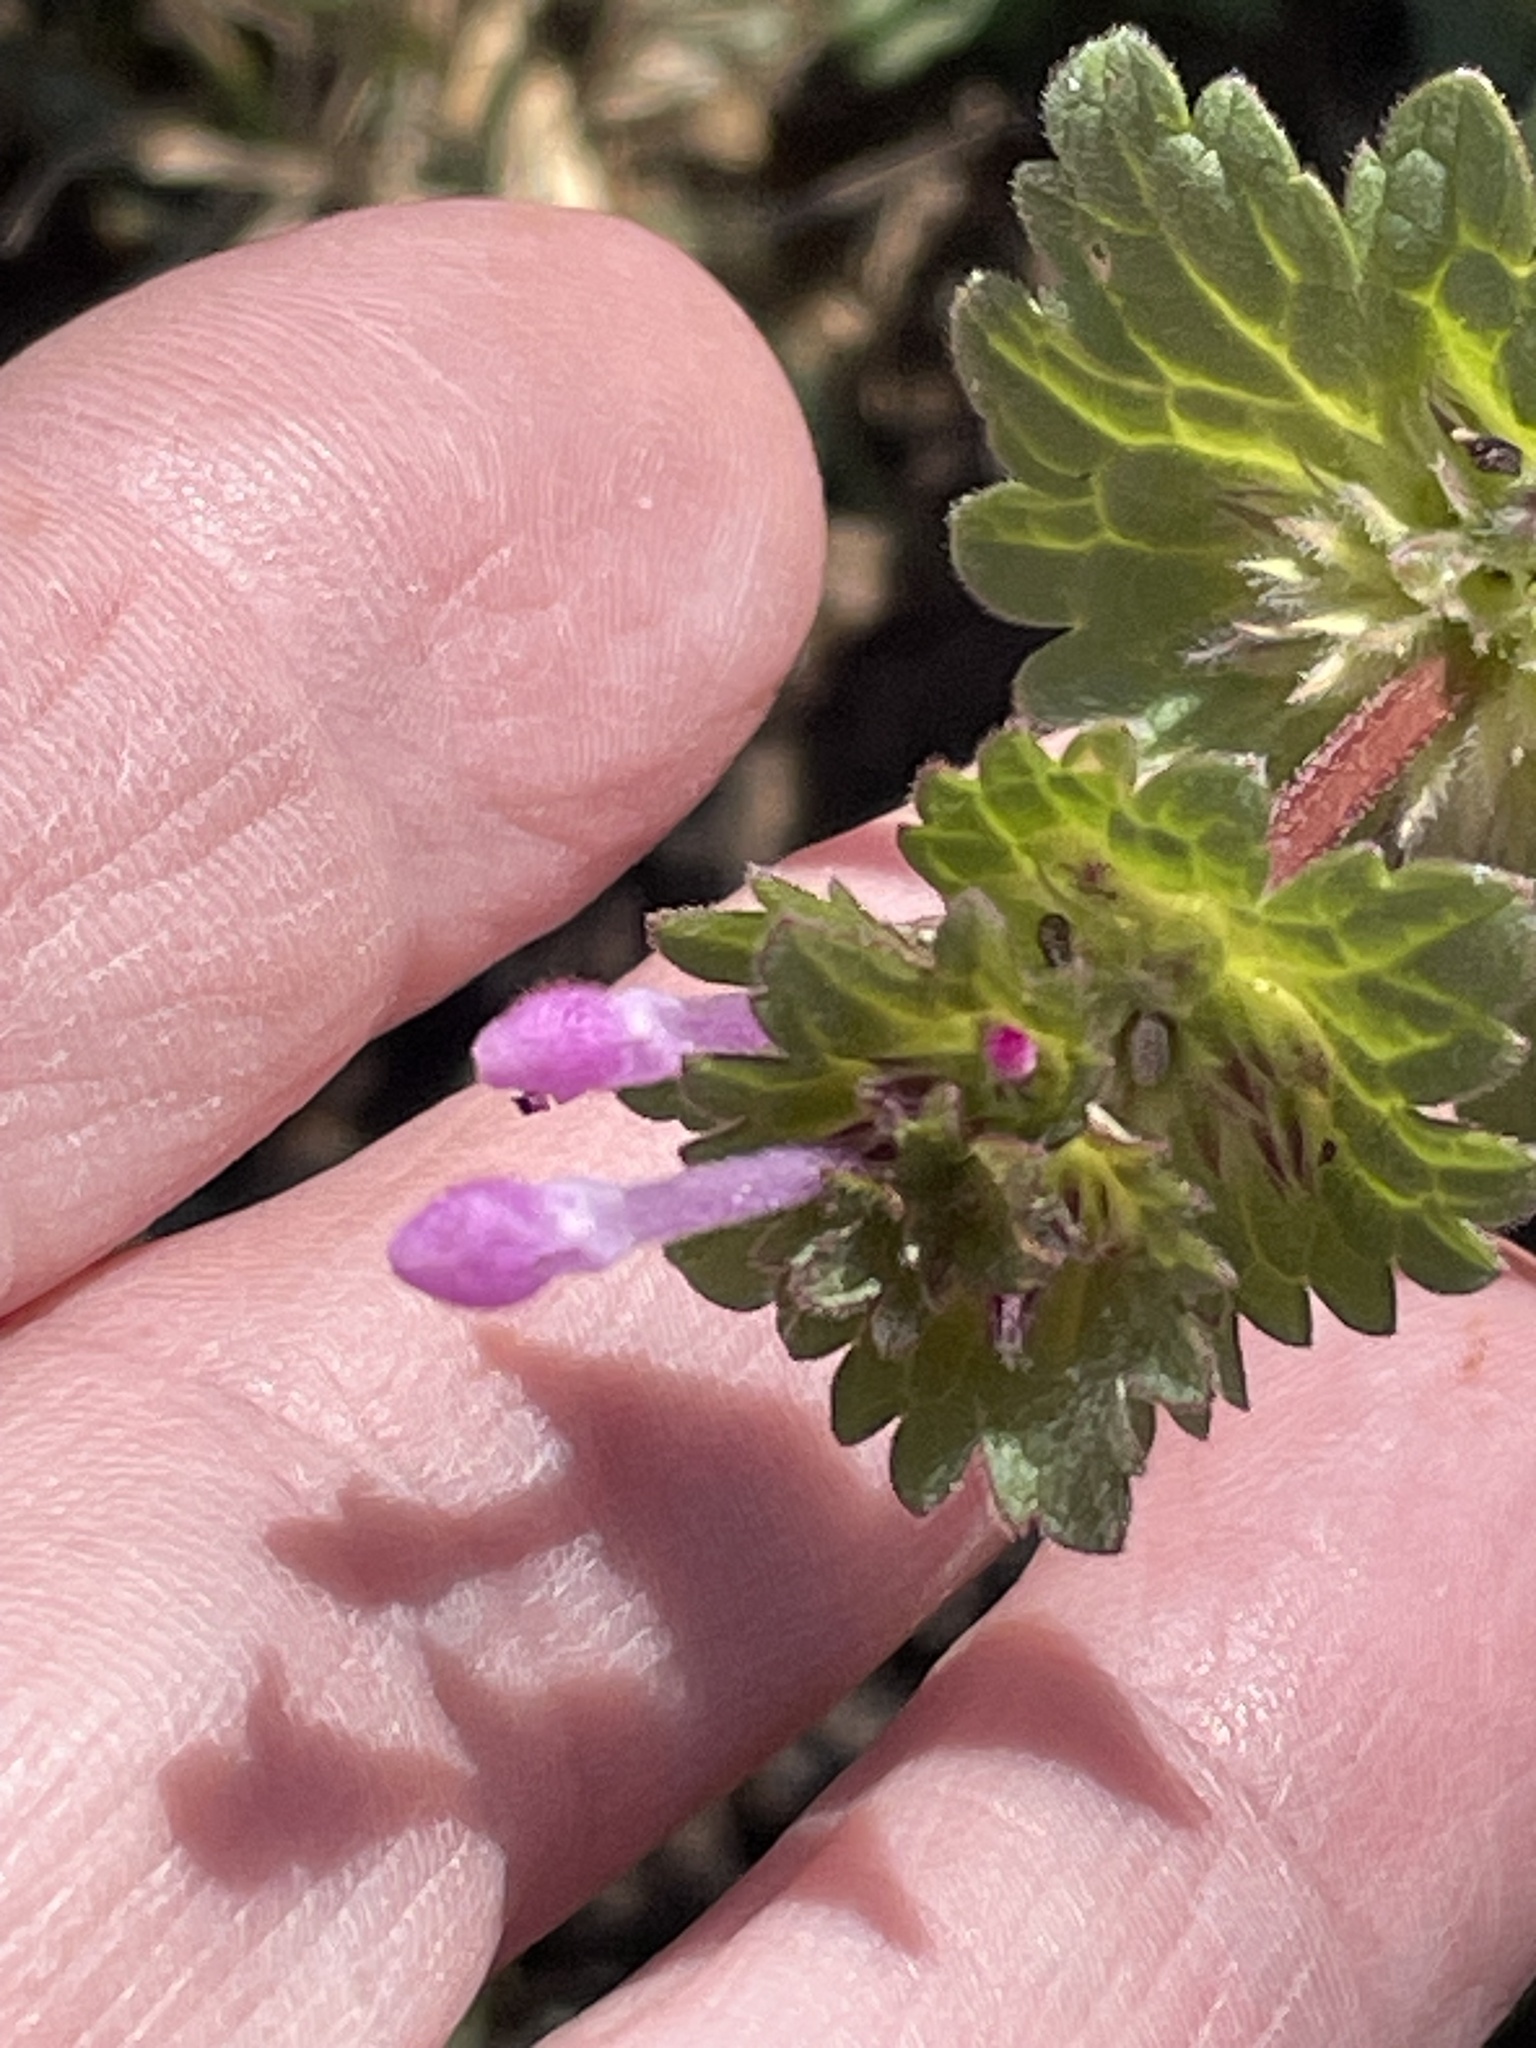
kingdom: Plantae
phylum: Tracheophyta
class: Magnoliopsida
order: Lamiales
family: Lamiaceae
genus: Lamium
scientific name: Lamium amplexicaule
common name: Henbit dead-nettle
